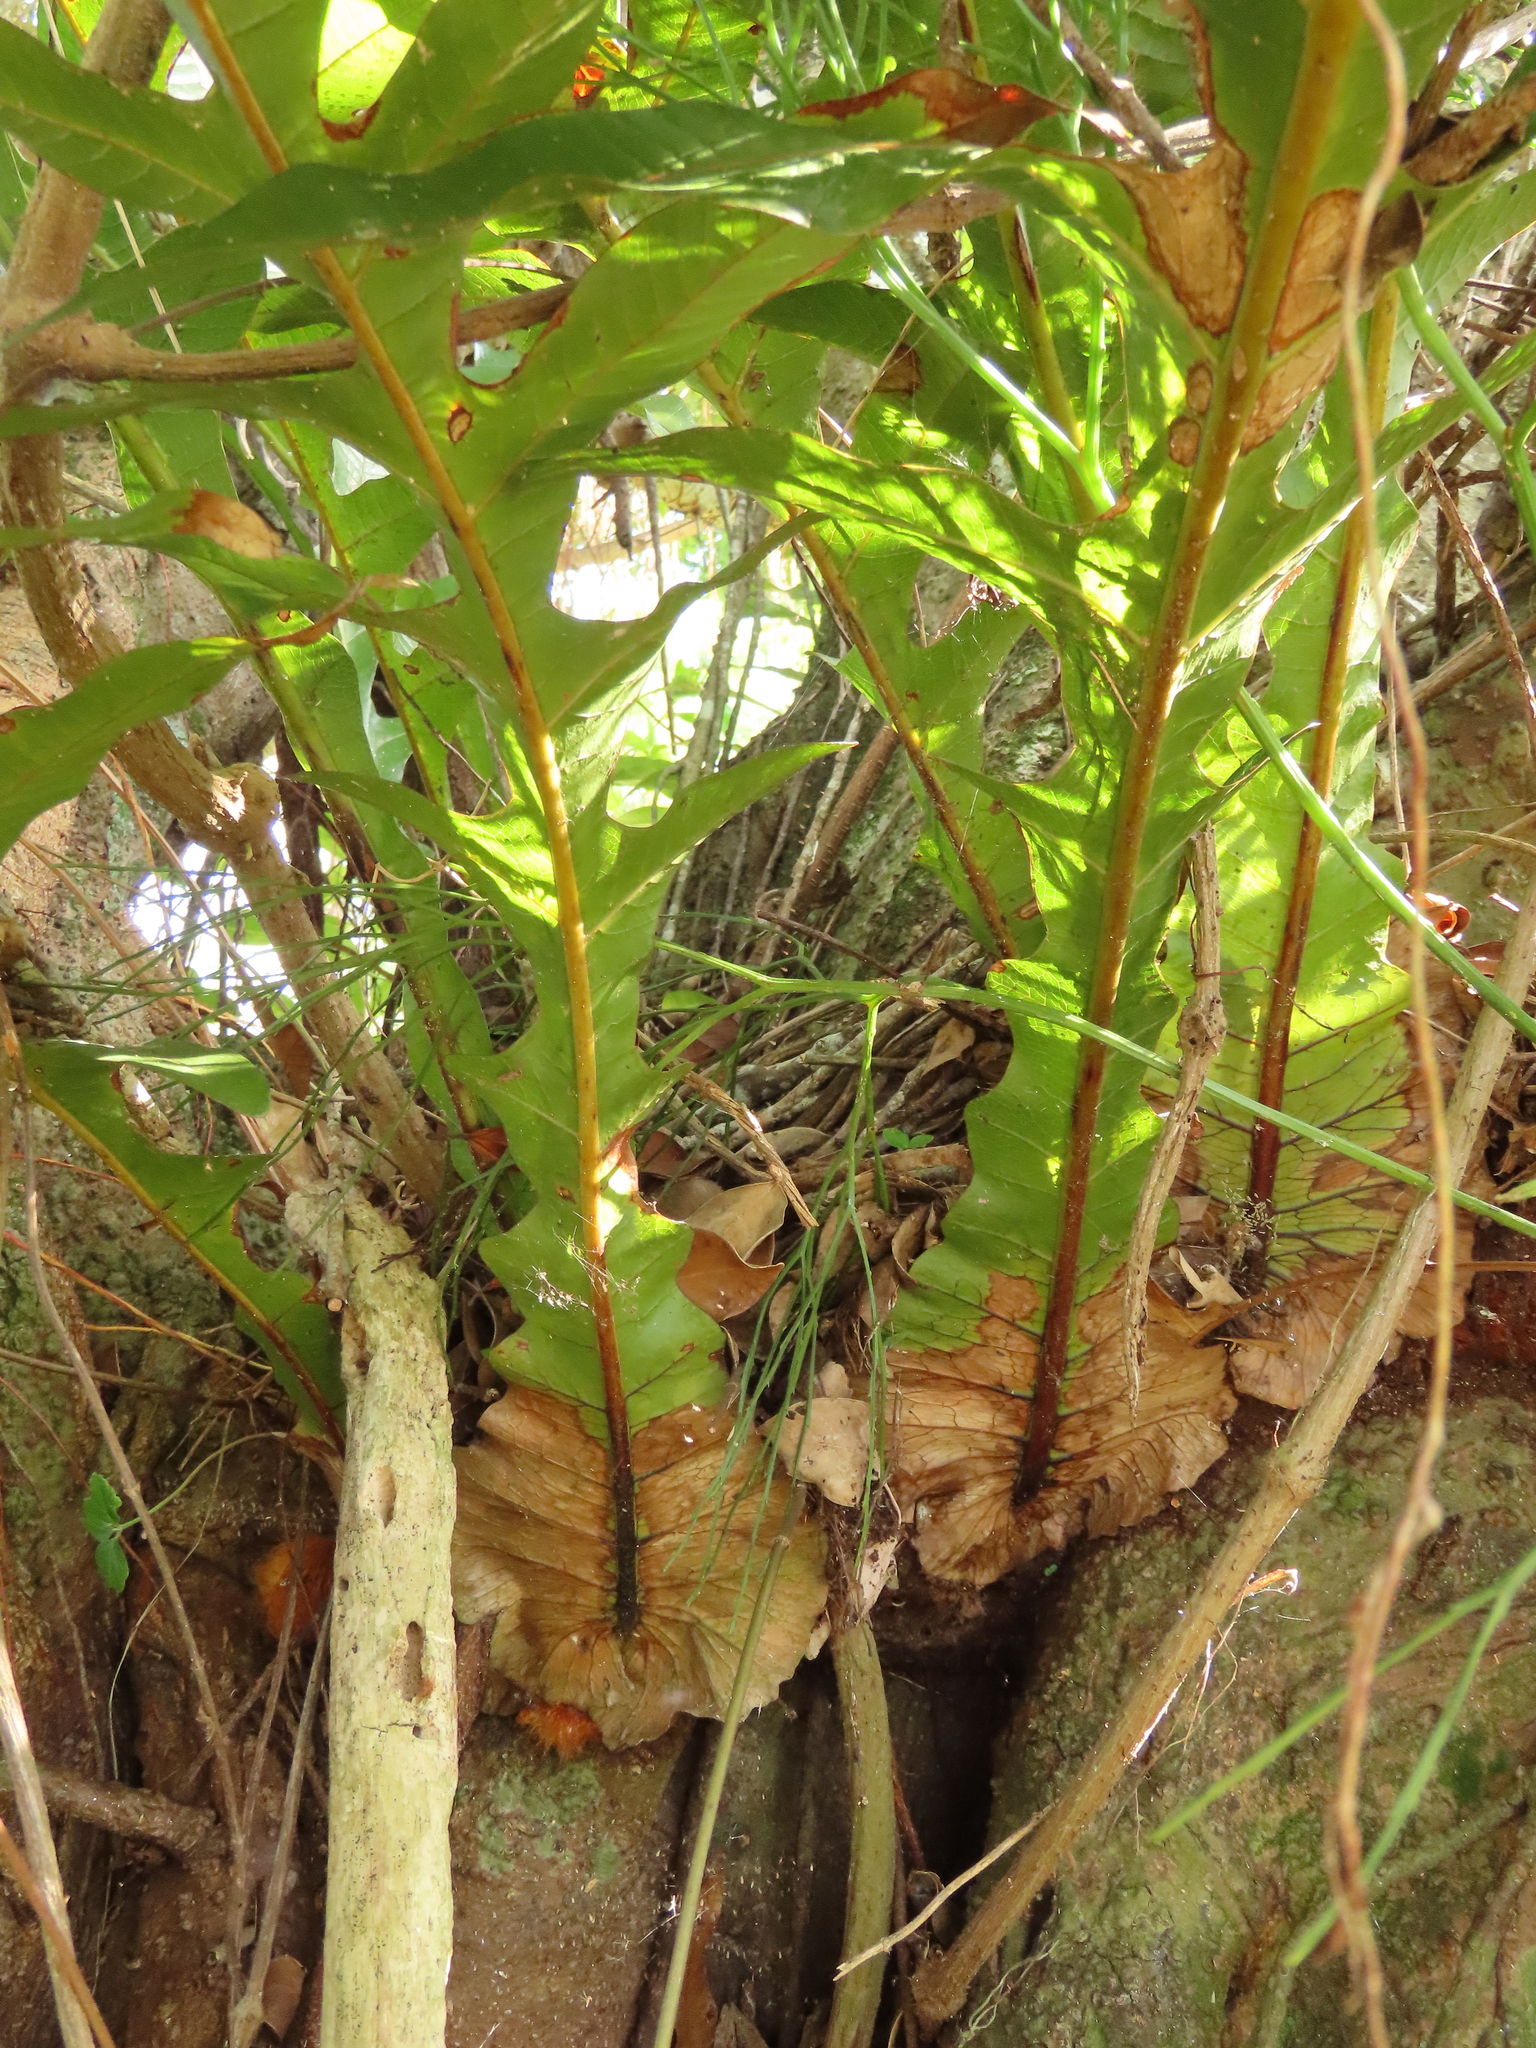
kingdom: Plantae
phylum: Tracheophyta
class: Polypodiopsida
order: Polypodiales
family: Polypodiaceae
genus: Drynaria
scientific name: Drynaria coronans
